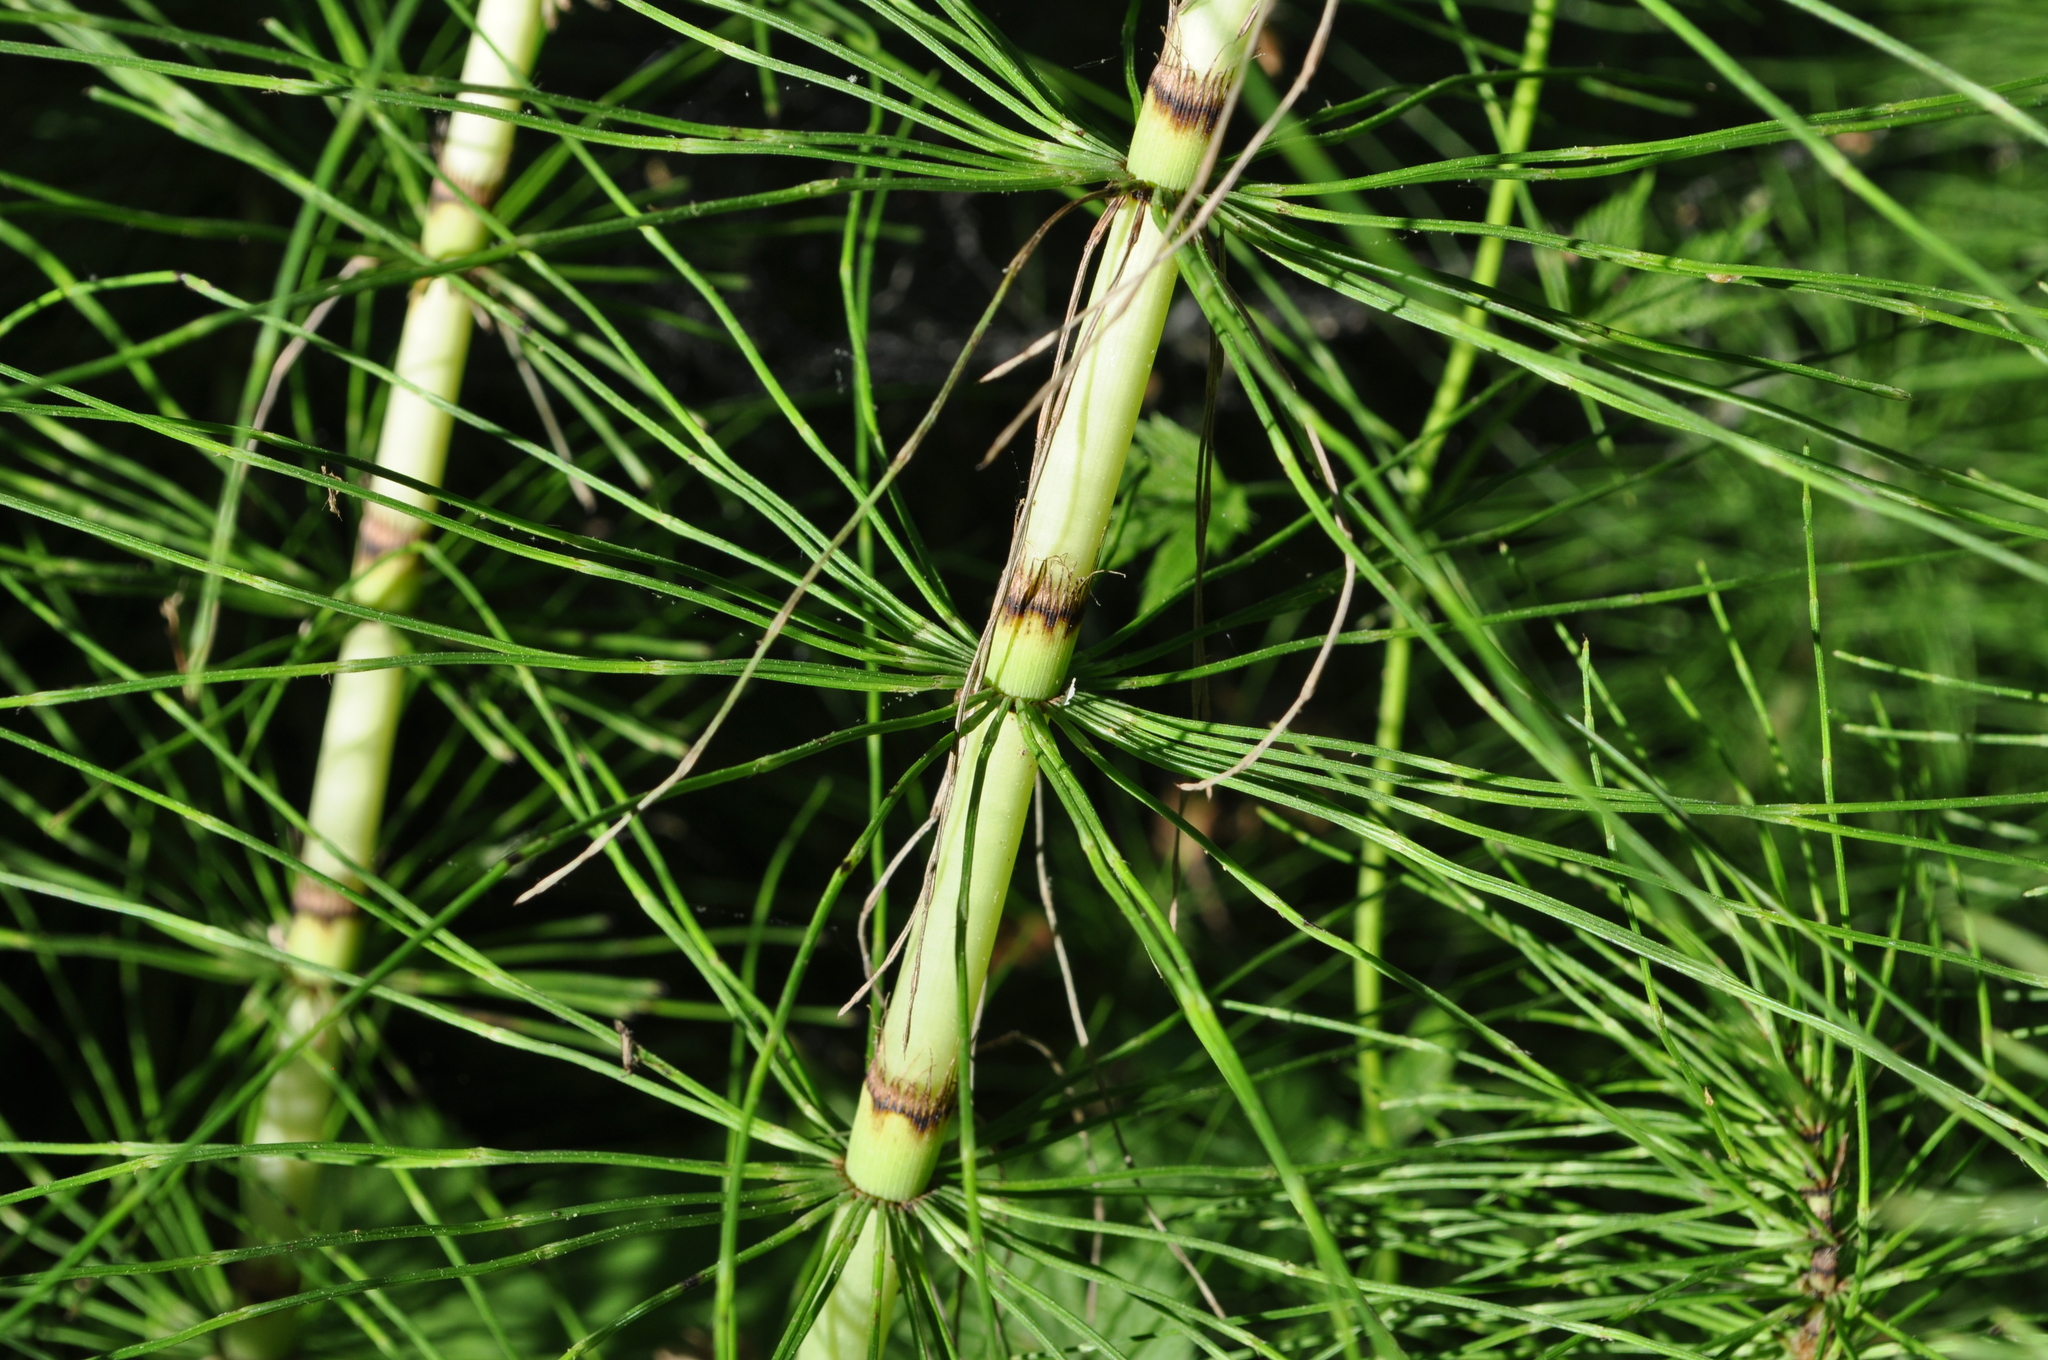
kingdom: Plantae
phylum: Tracheophyta
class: Polypodiopsida
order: Equisetales
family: Equisetaceae
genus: Equisetum
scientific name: Equisetum telmateia
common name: Great horsetail
